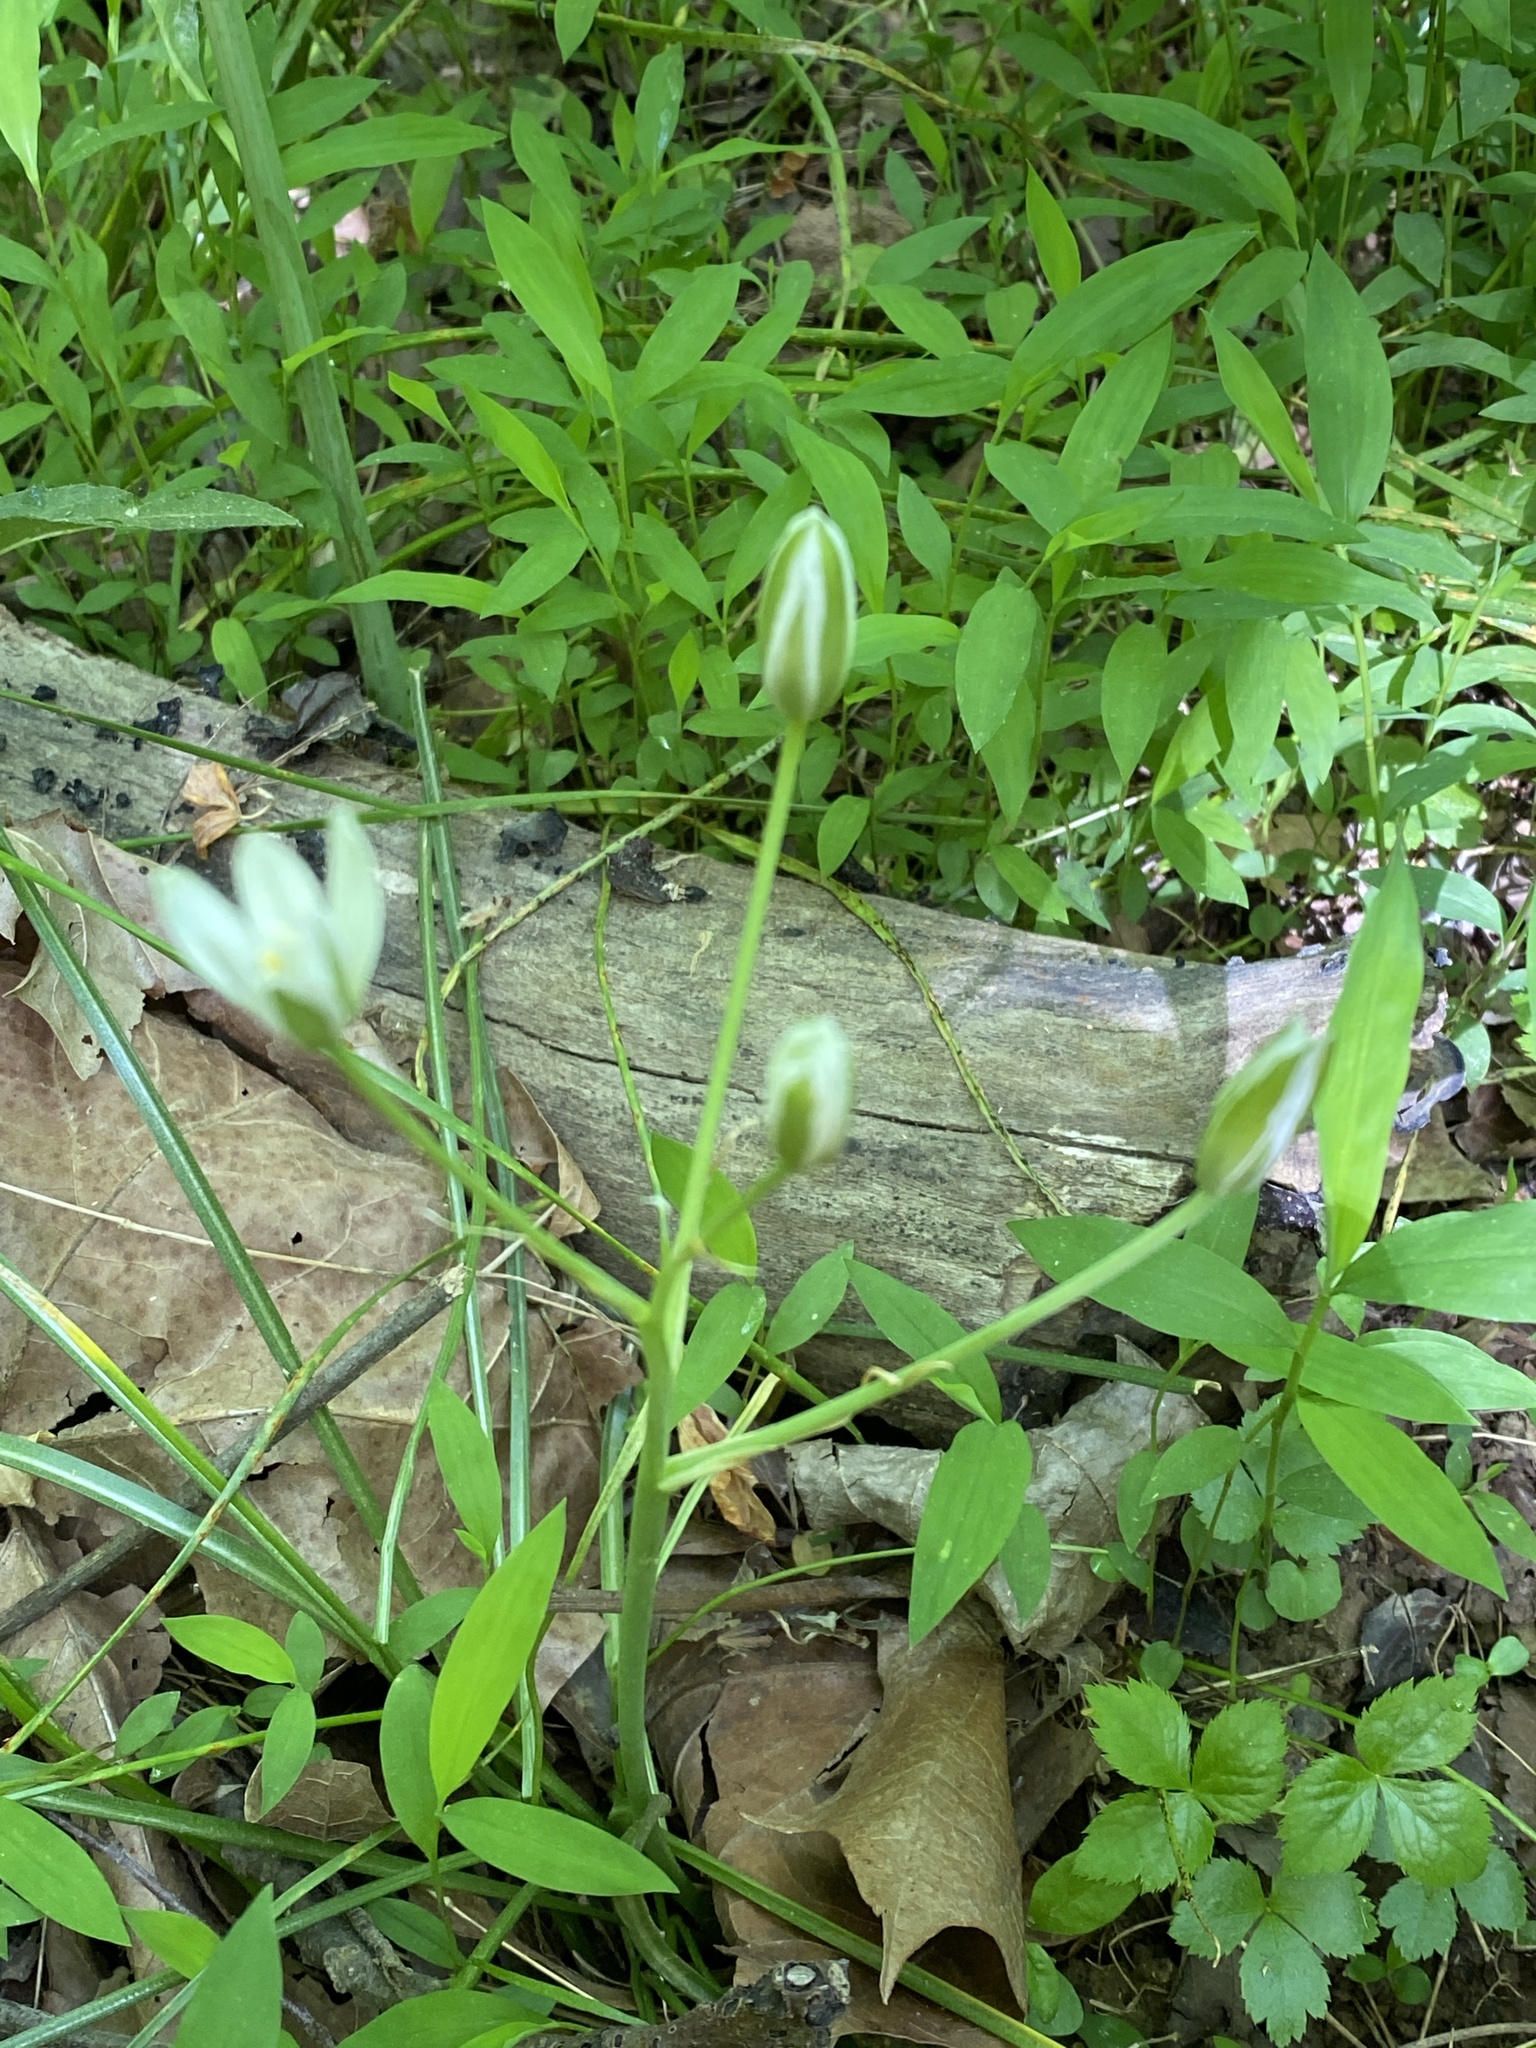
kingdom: Plantae
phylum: Tracheophyta
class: Liliopsida
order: Asparagales
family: Asparagaceae
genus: Ornithogalum
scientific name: Ornithogalum umbellatum
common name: Garden star-of-bethlehem
